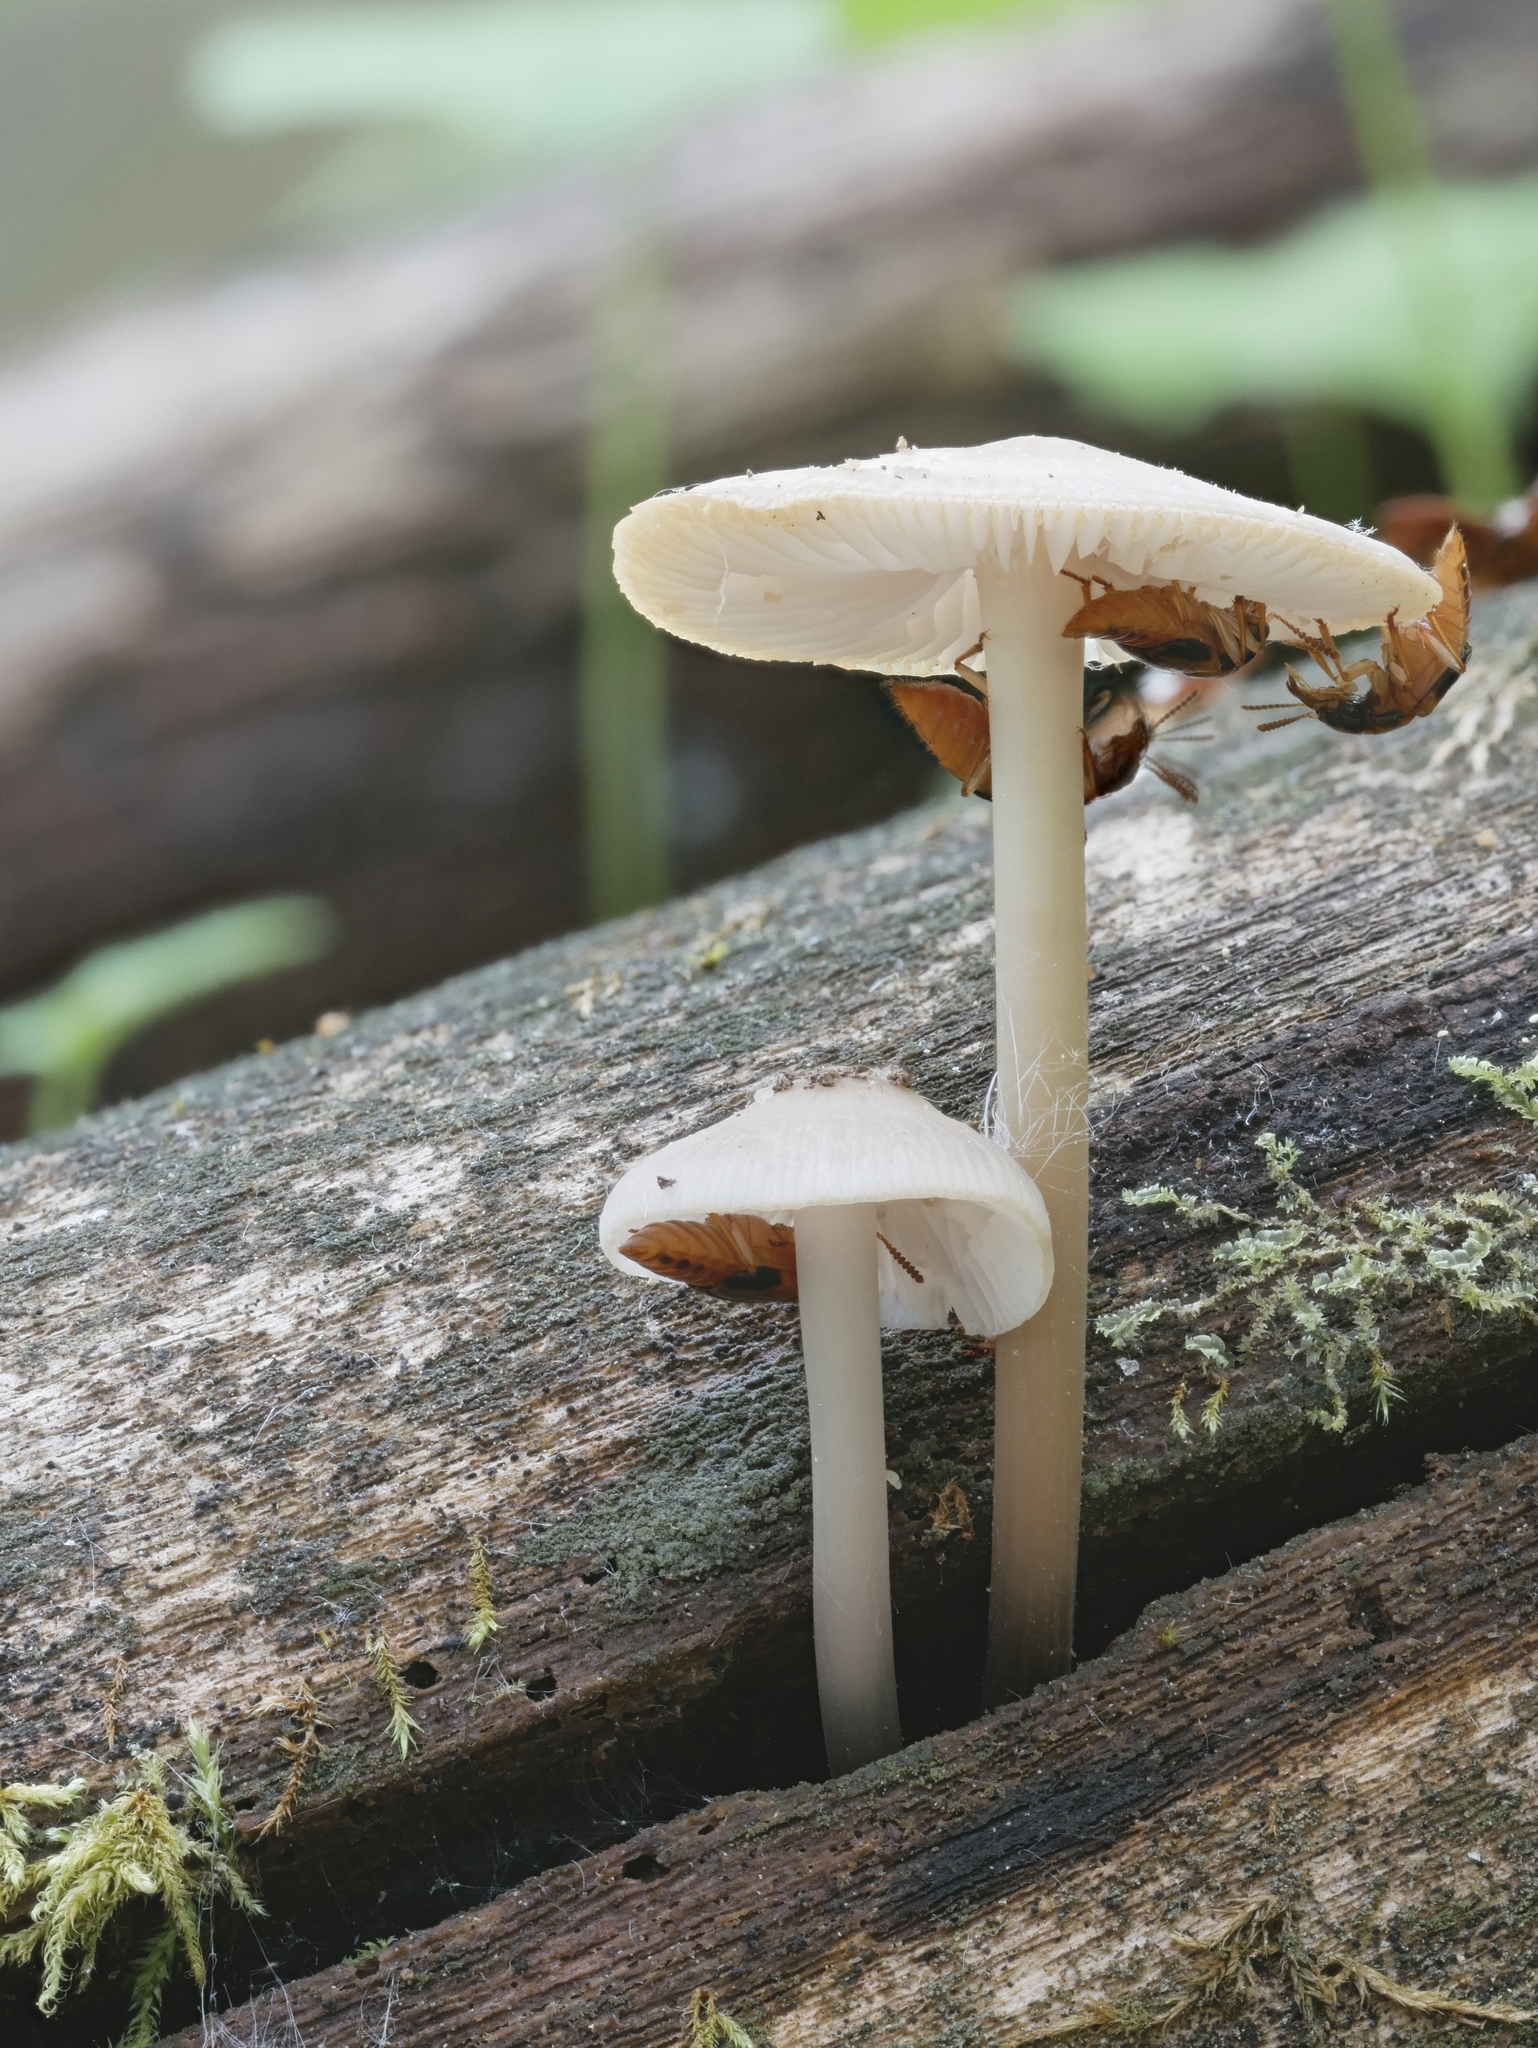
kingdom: Fungi
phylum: Basidiomycota
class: Agaricomycetes
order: Agaricales
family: Mycenaceae
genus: Mycena
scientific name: Mycena galericulata
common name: Bonnet mycena
